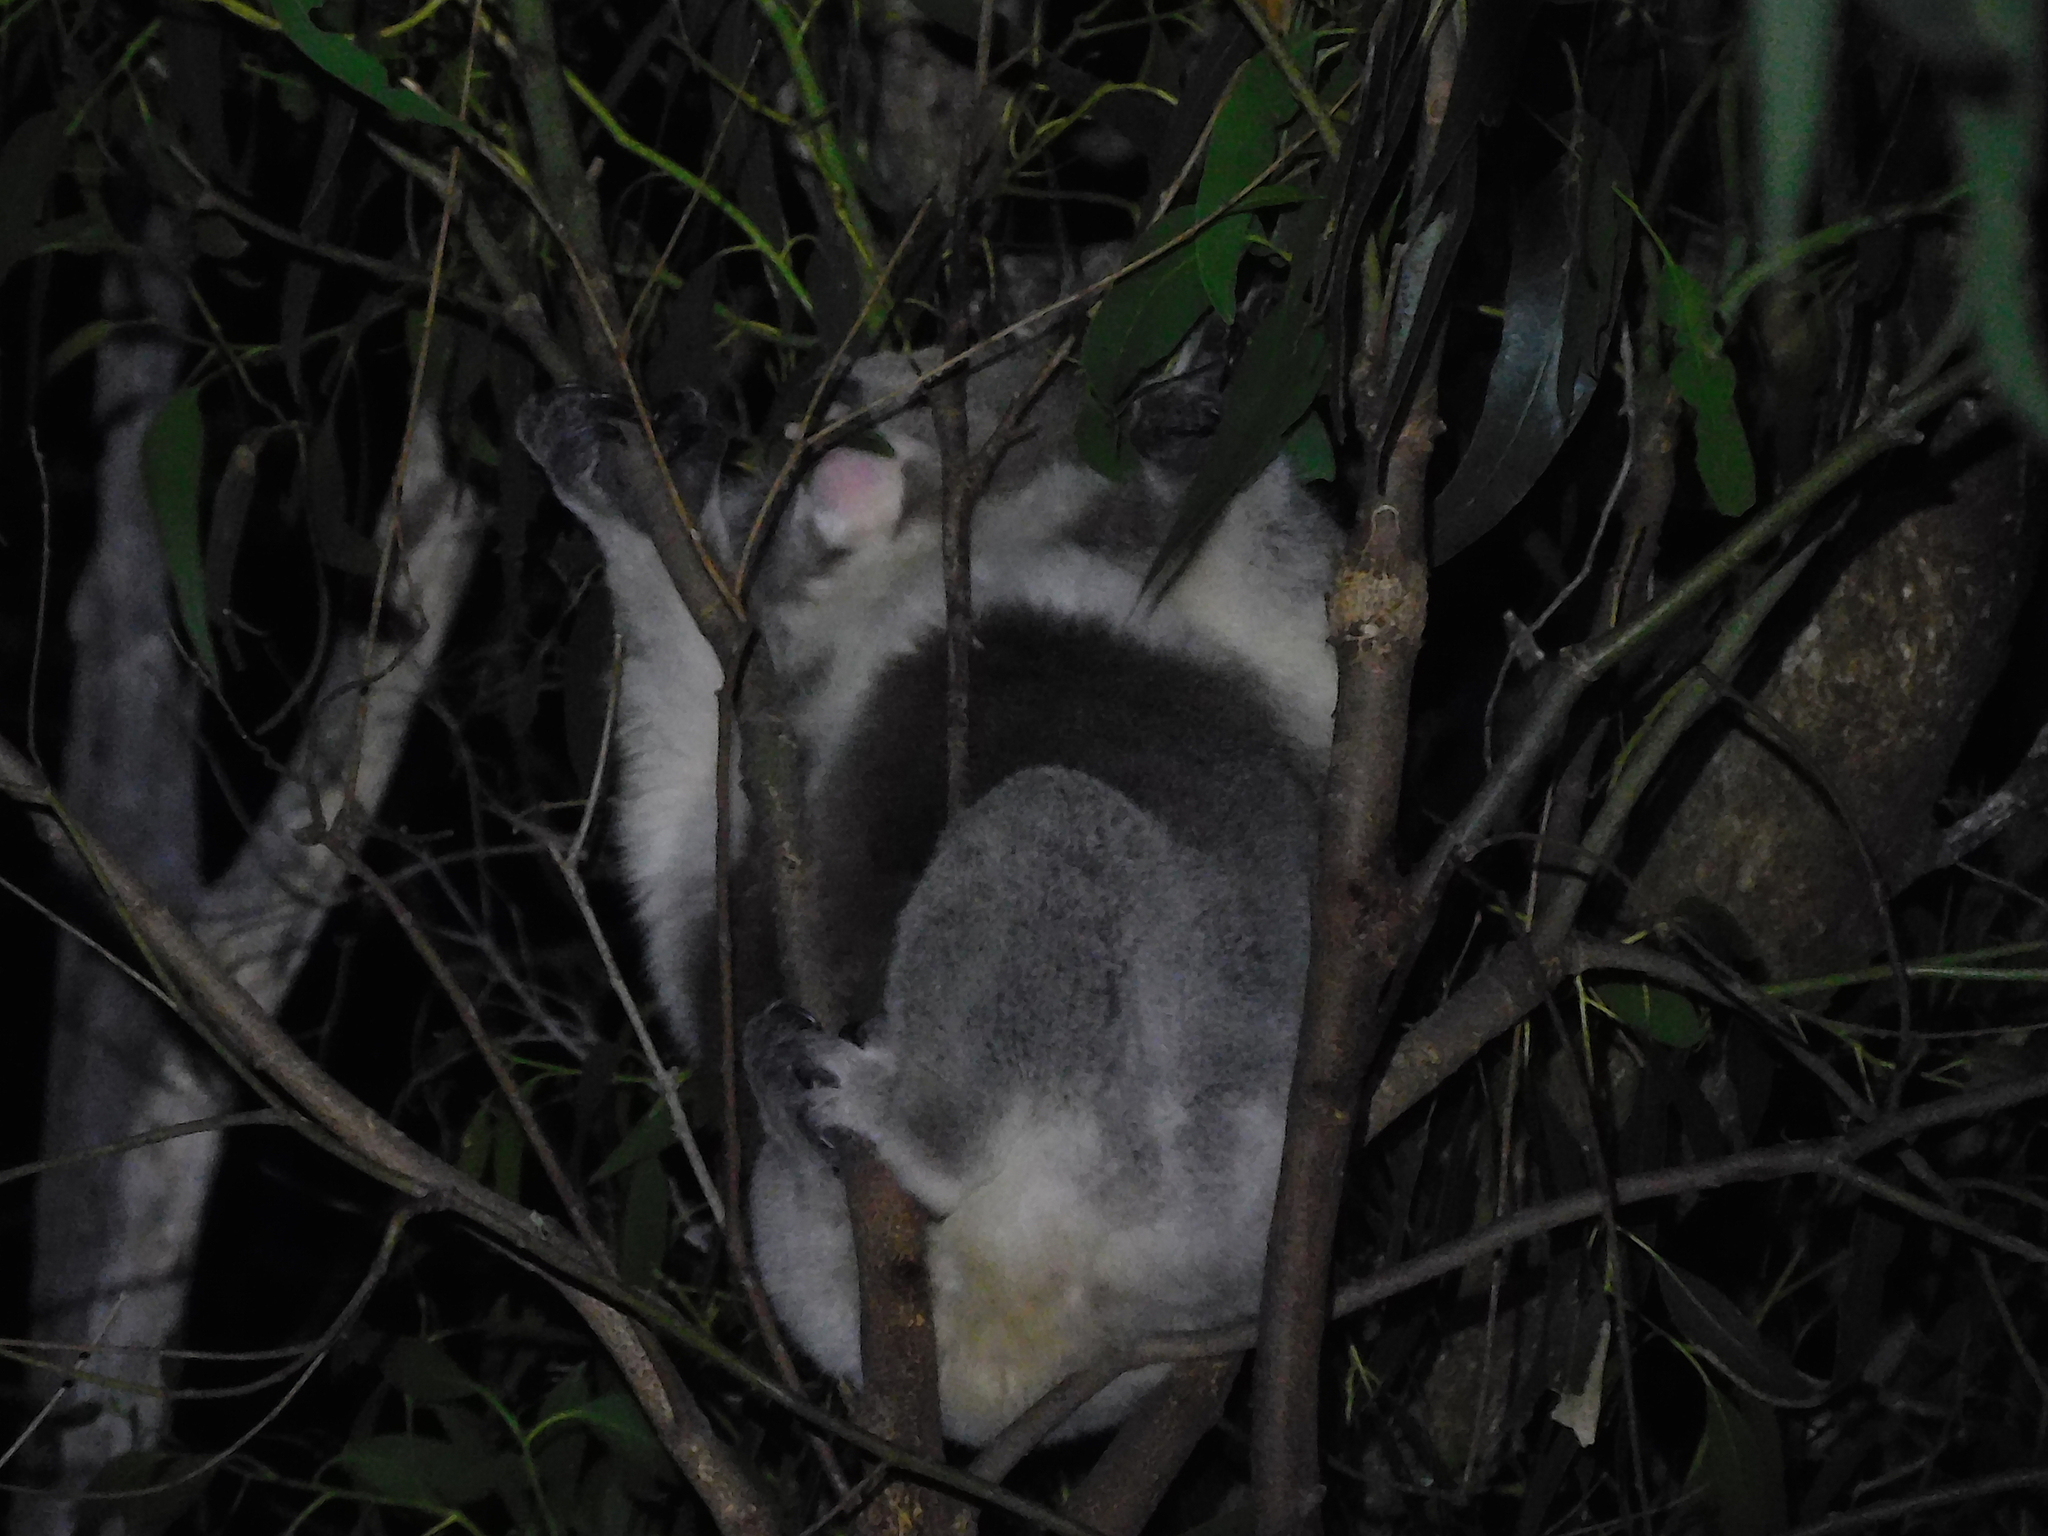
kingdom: Animalia
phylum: Chordata
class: Mammalia
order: Diprotodontia
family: Phascolarctidae
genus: Phascolarctos
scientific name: Phascolarctos cinereus
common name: Koala
